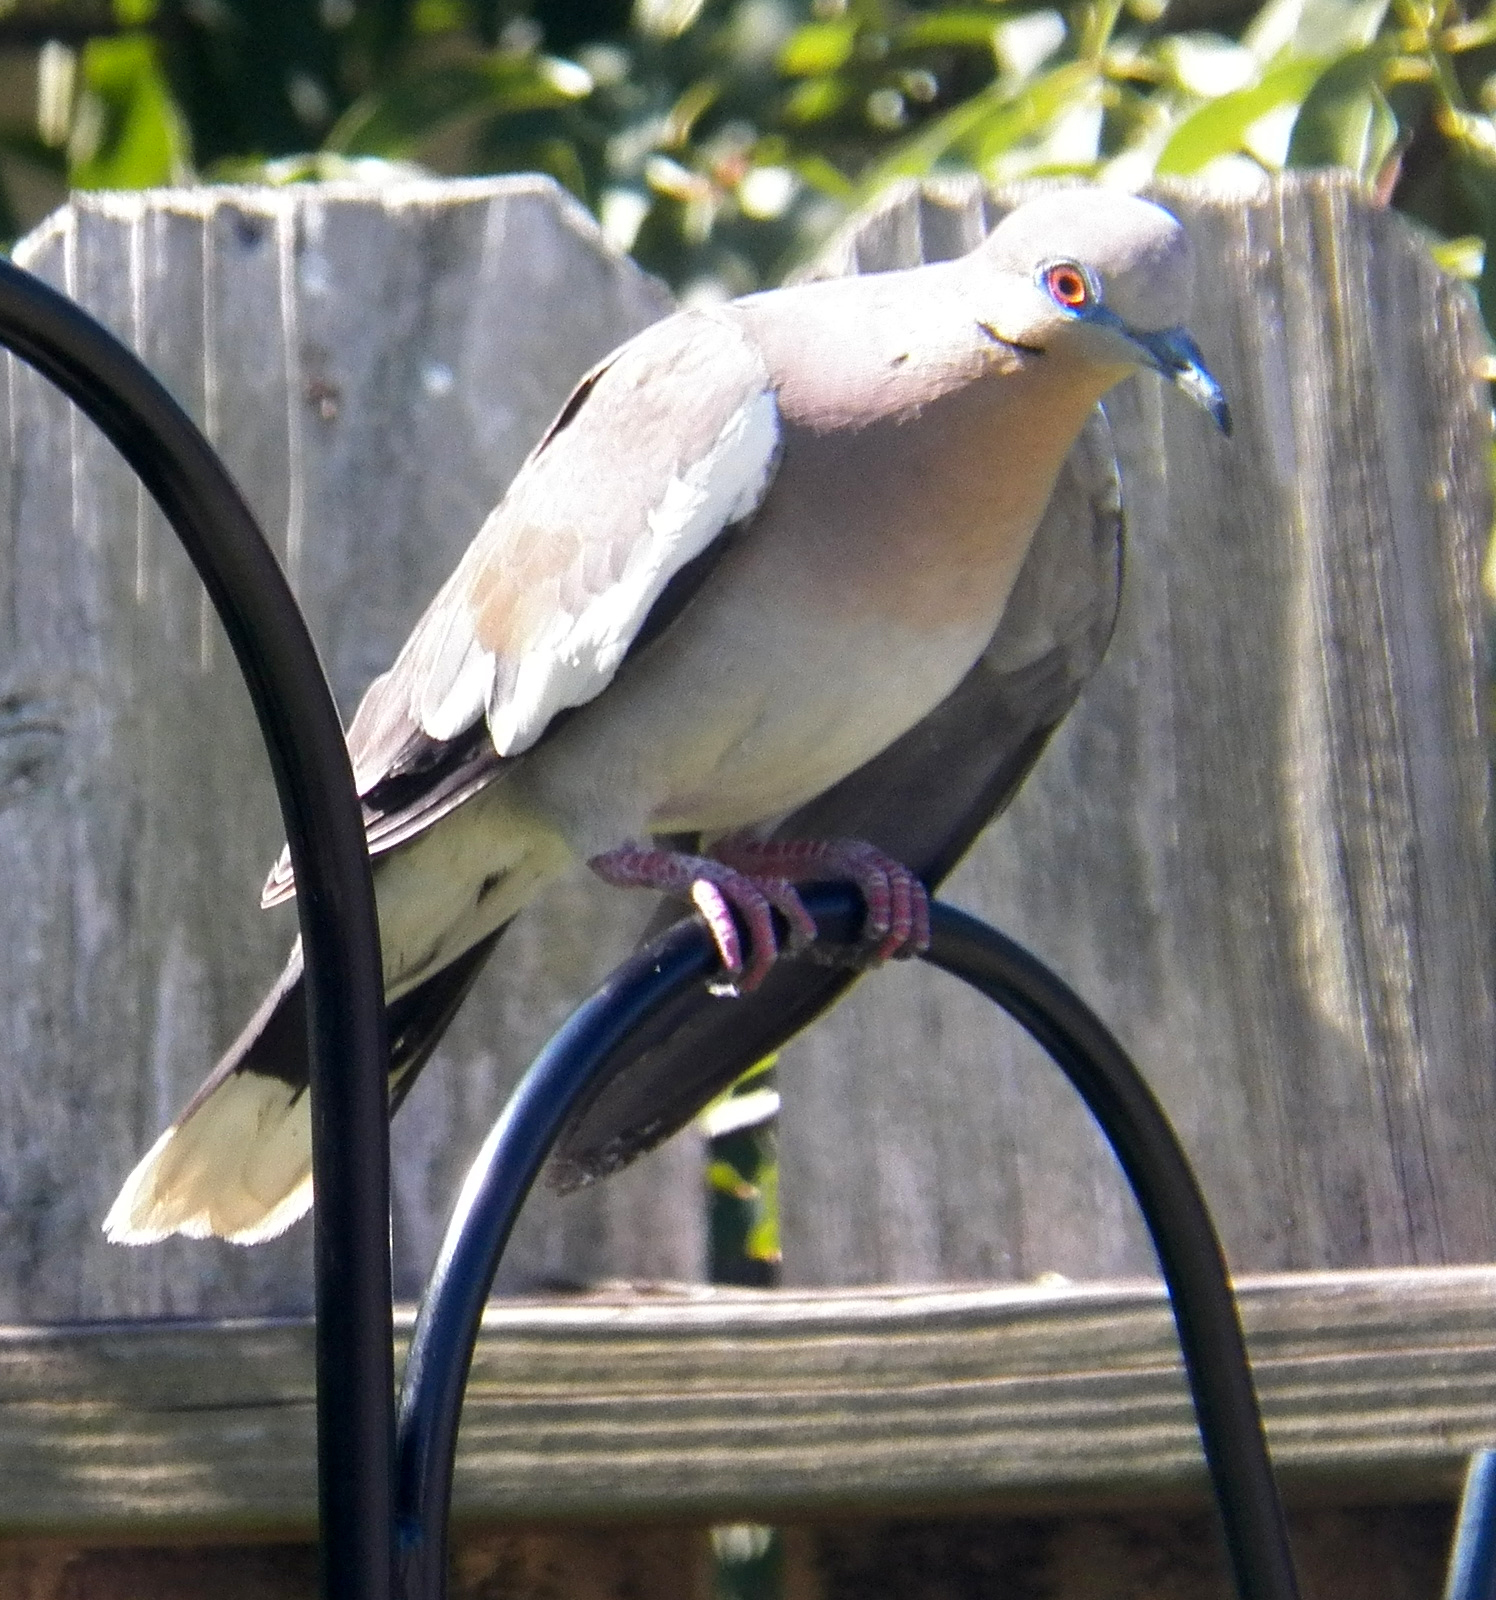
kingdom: Animalia
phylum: Chordata
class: Aves
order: Columbiformes
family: Columbidae
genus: Zenaida
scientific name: Zenaida asiatica
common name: White-winged dove
